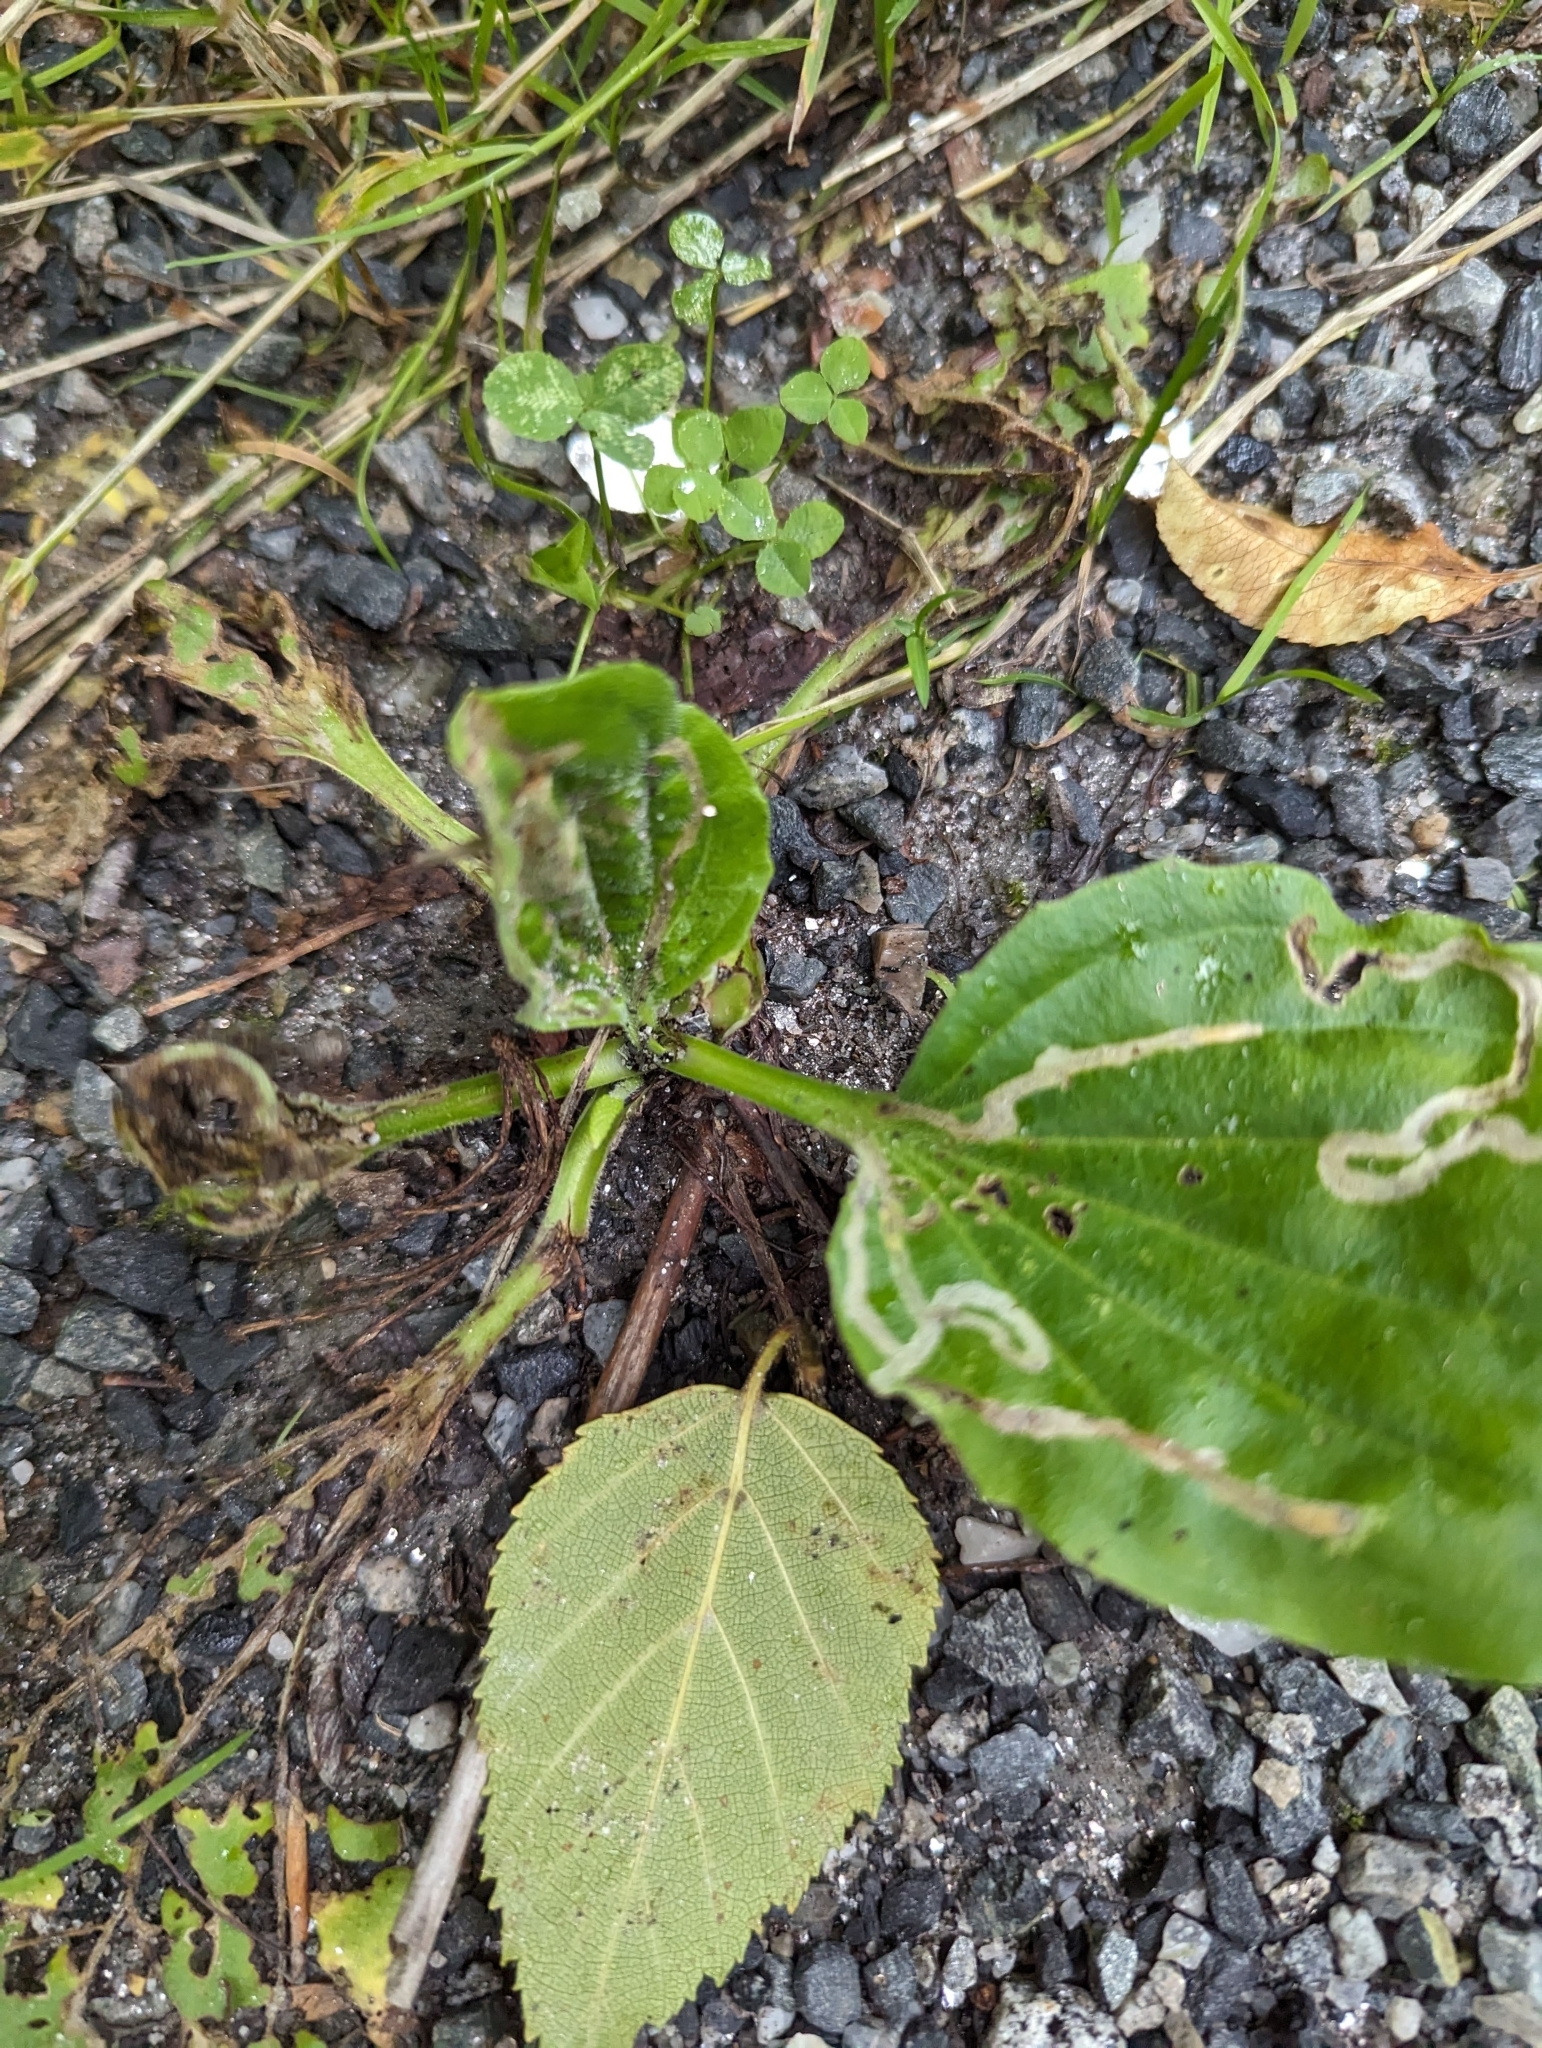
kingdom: Plantae
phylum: Tracheophyta
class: Magnoliopsida
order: Lamiales
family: Plantaginaceae
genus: Plantago
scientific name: Plantago major
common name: Common plantain
